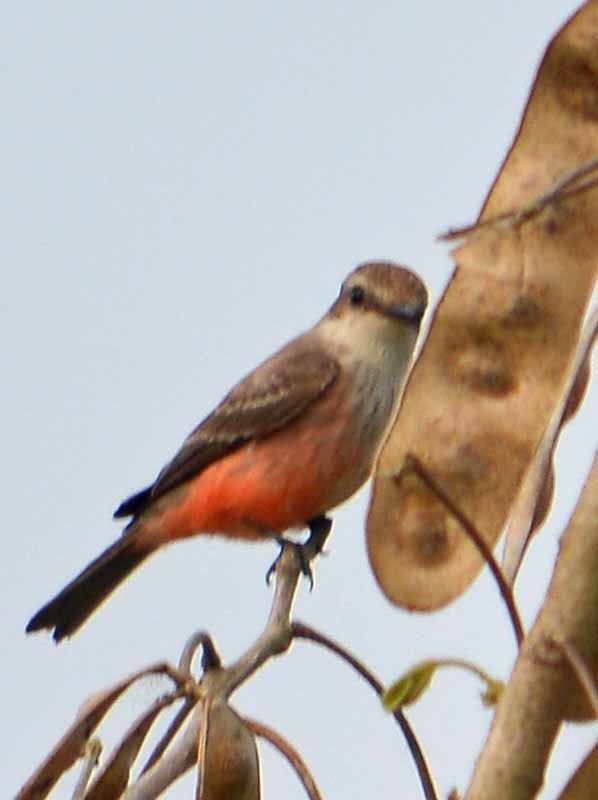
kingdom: Animalia
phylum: Chordata
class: Aves
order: Passeriformes
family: Tyrannidae
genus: Pyrocephalus
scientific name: Pyrocephalus rubinus
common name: Vermilion flycatcher
